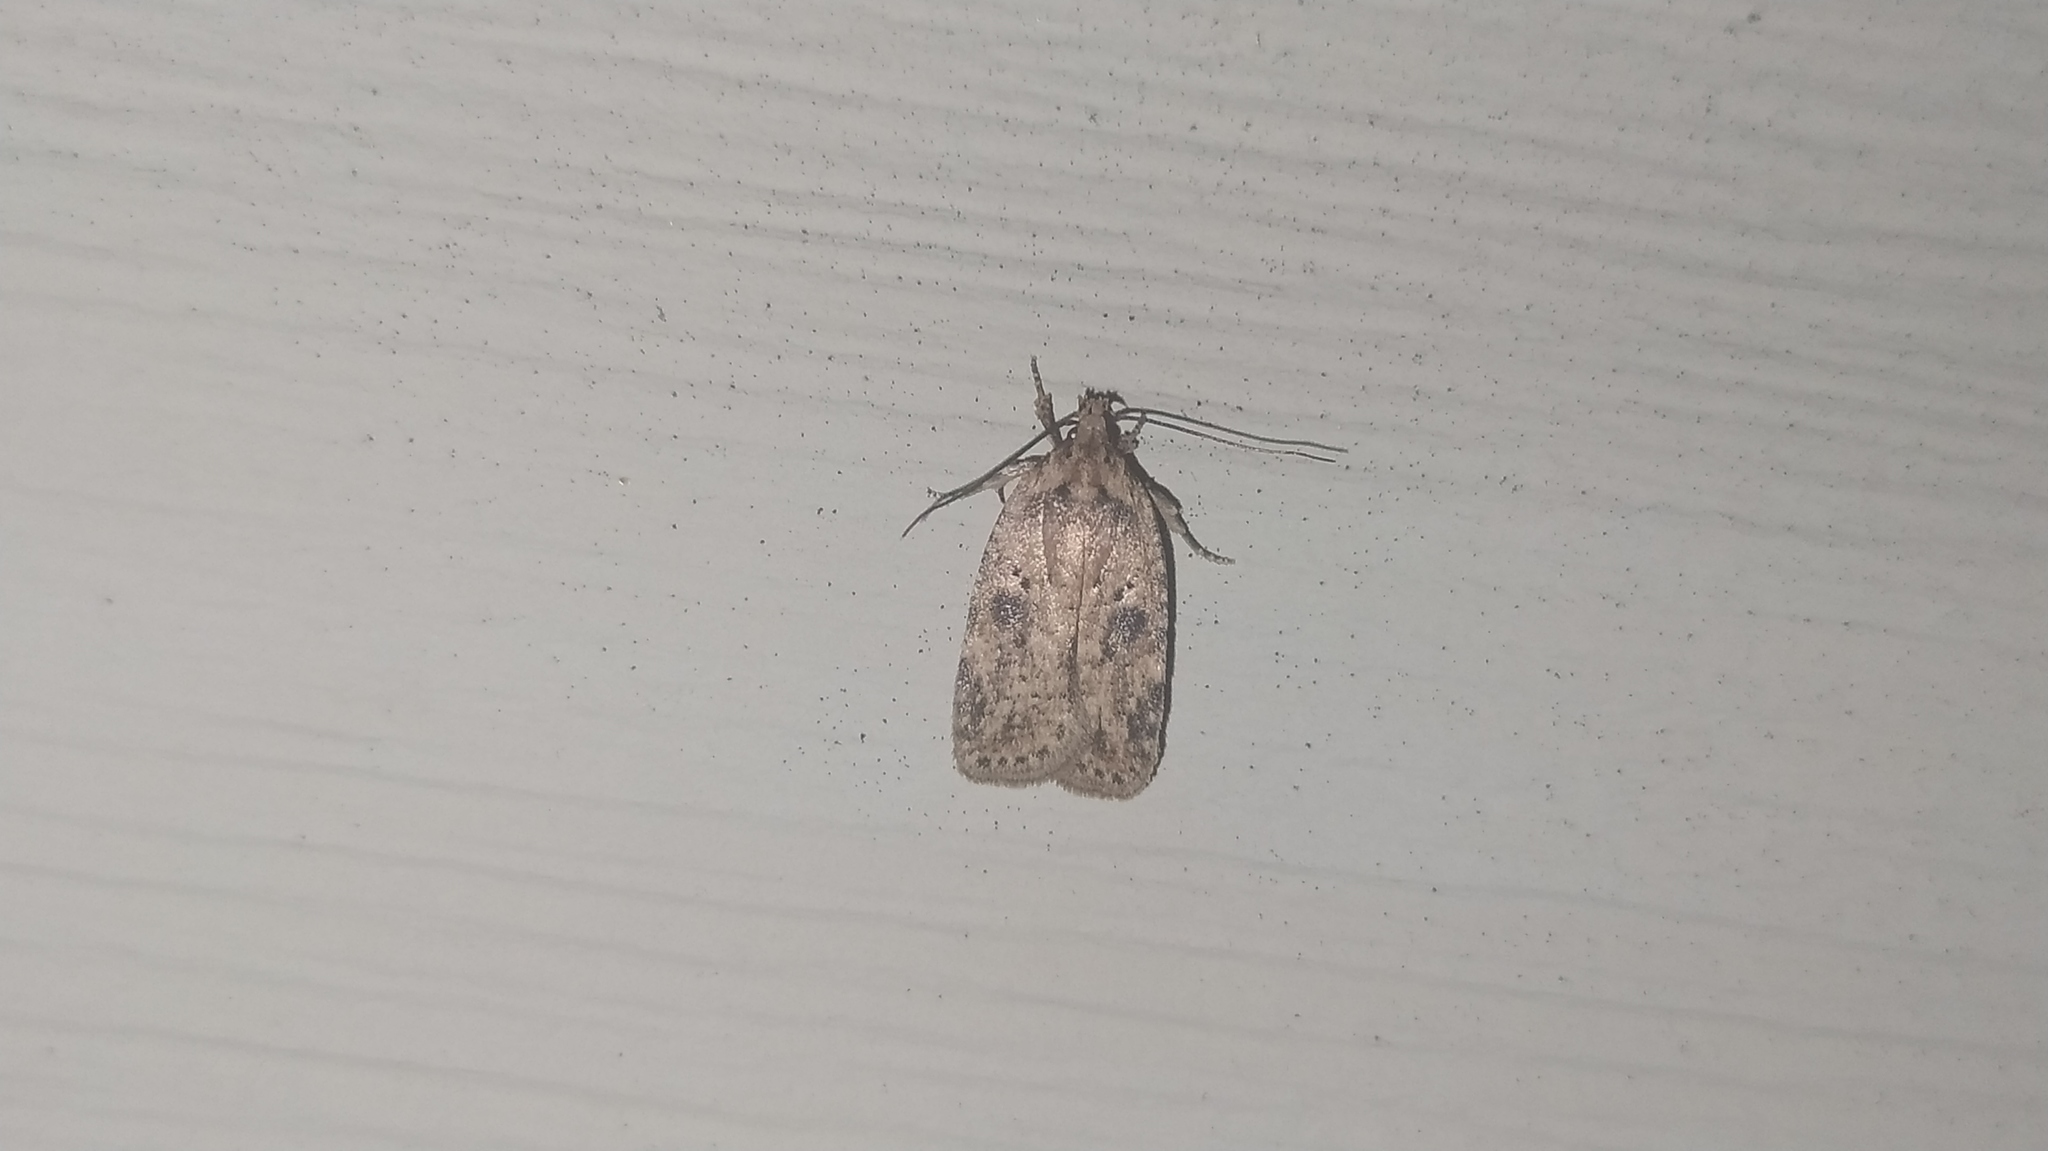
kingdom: Animalia
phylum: Arthropoda
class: Insecta
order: Lepidoptera
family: Depressariidae
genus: Agonopterix
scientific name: Agonopterix arenella
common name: Brindled flat-body
